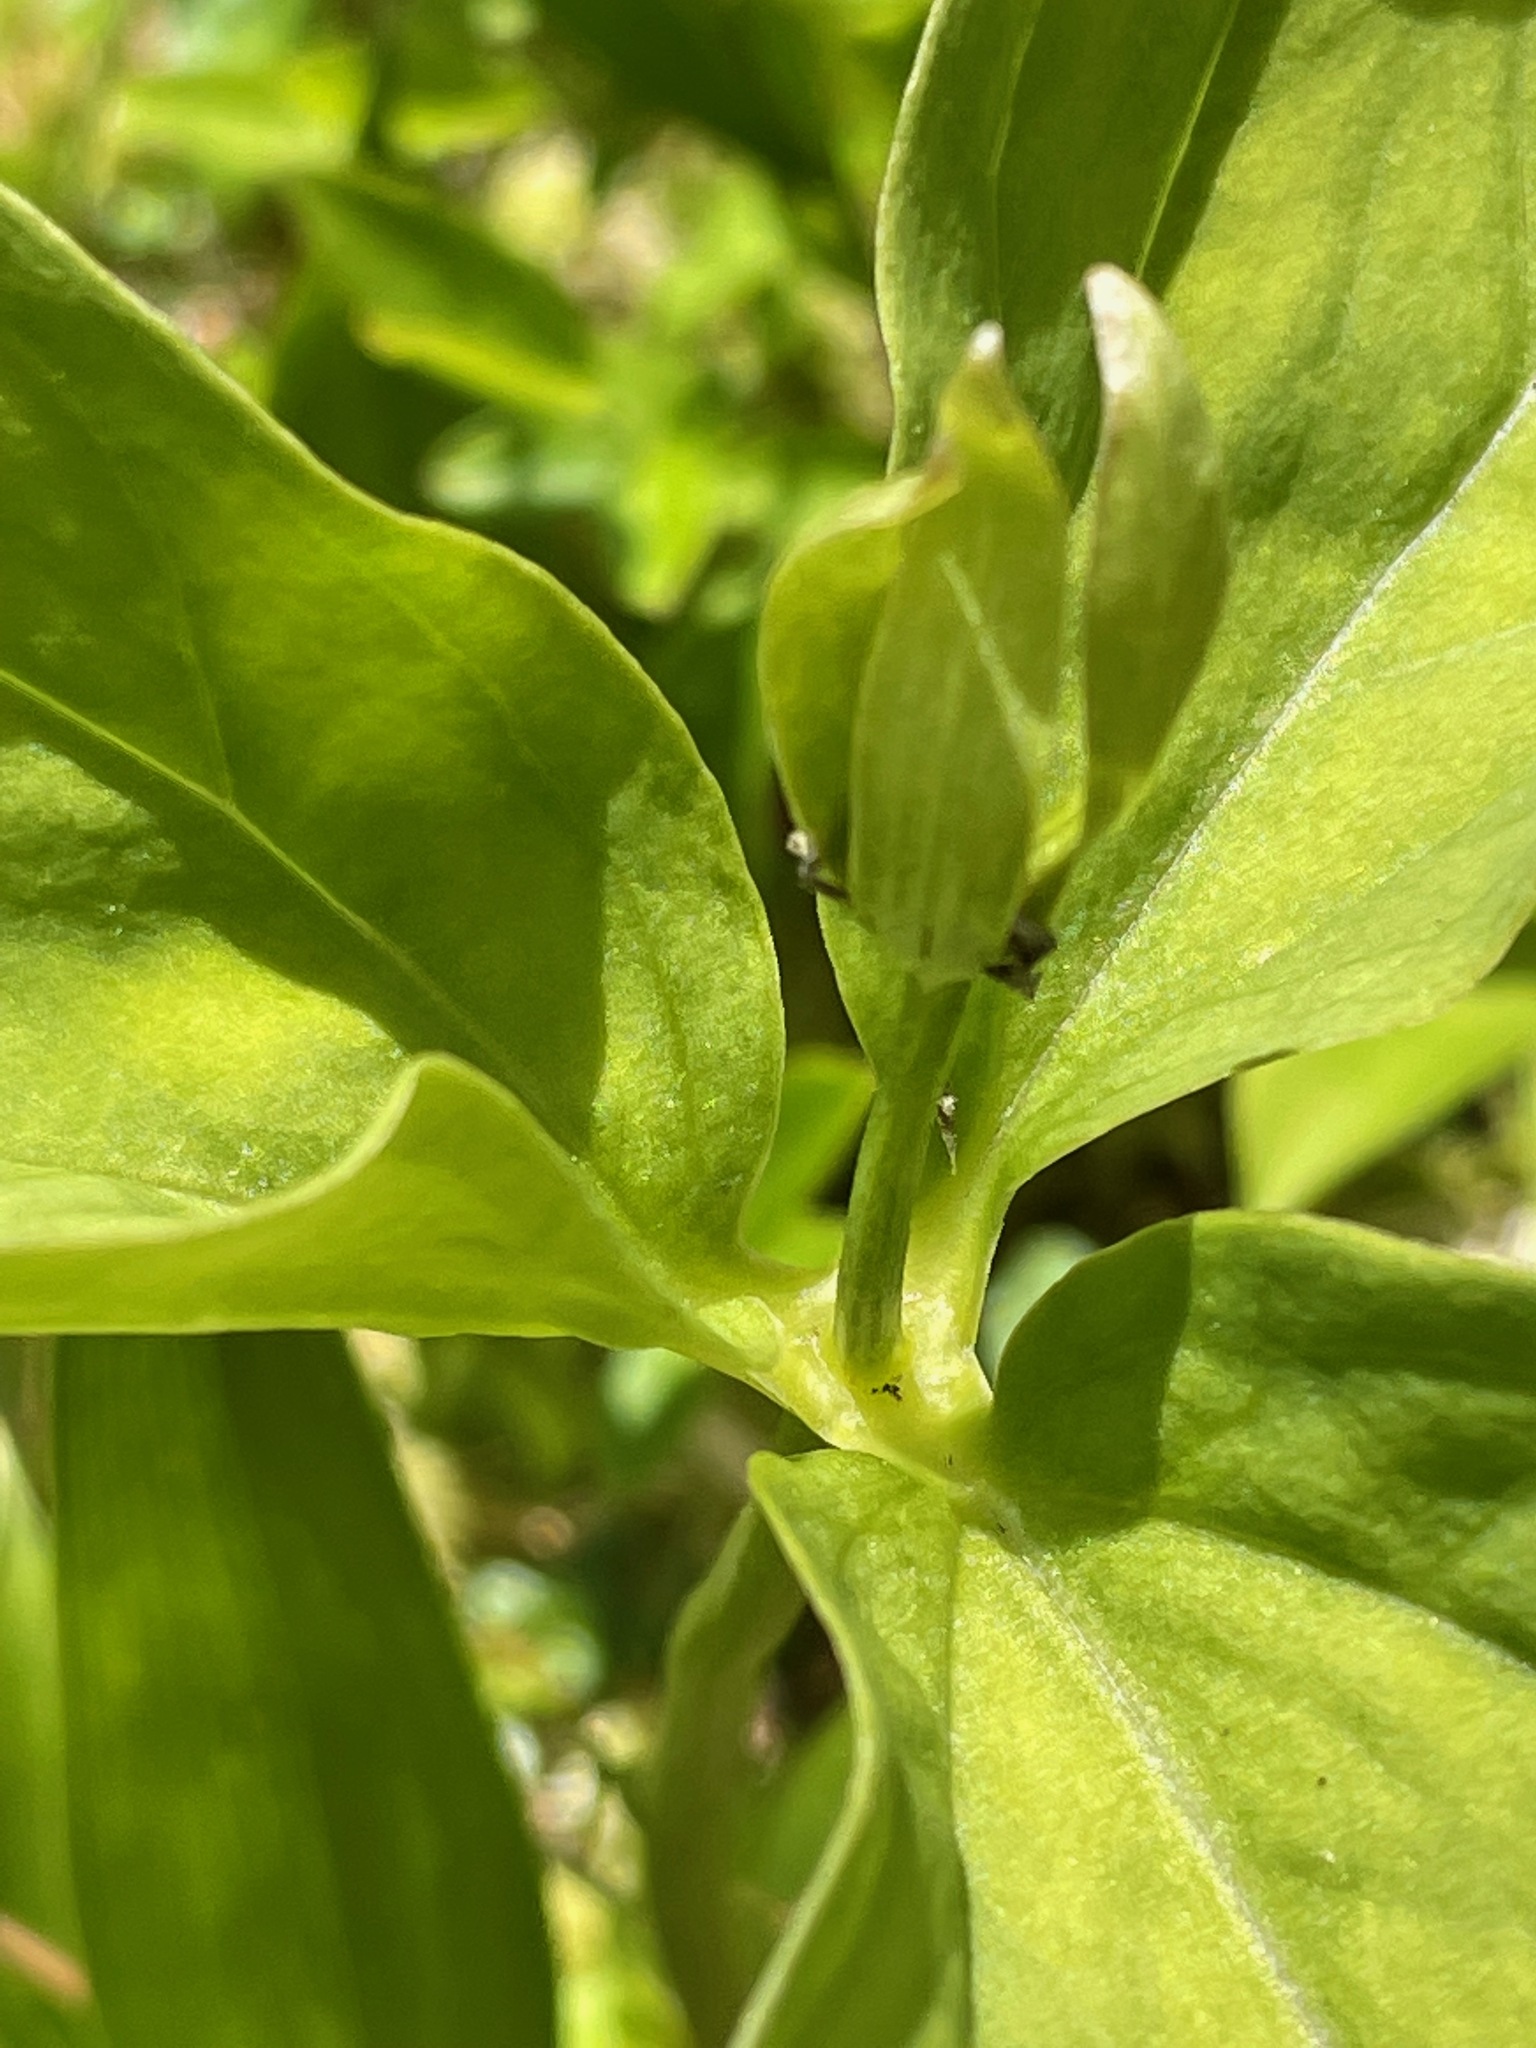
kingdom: Plantae
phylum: Tracheophyta
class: Liliopsida
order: Liliales
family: Melanthiaceae
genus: Trillium
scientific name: Trillium undulatum
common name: Paint trillium
